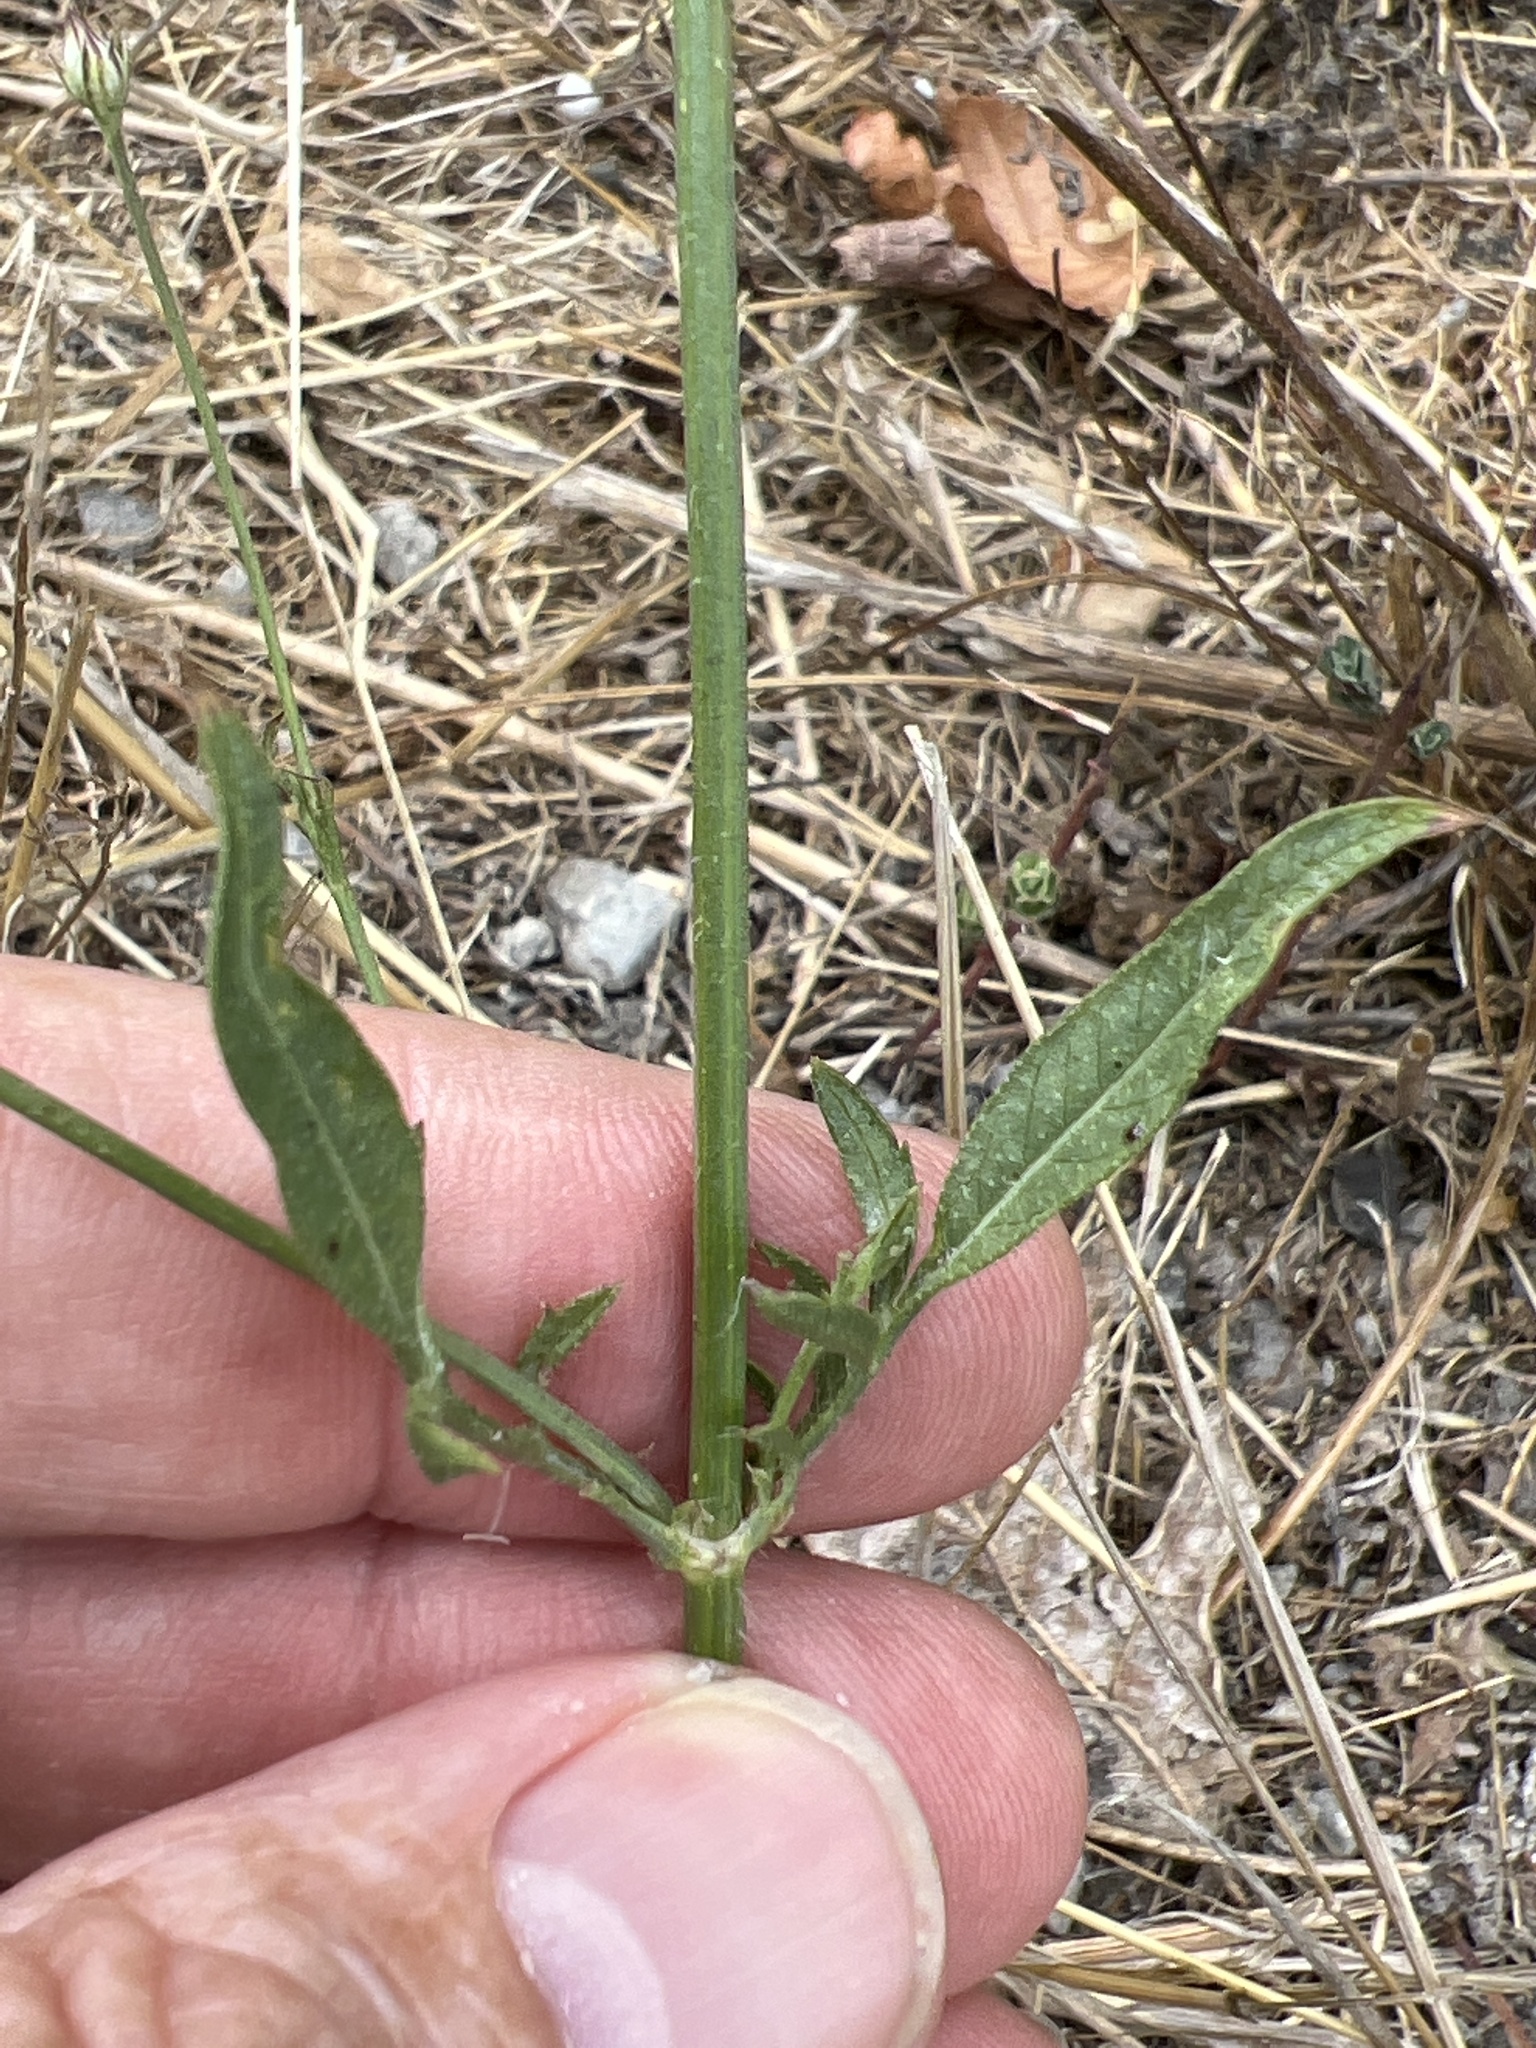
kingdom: Plantae
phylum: Tracheophyta
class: Magnoliopsida
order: Dipsacales
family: Caprifoliaceae
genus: Cephalaria
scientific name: Cephalaria transsylvanica
